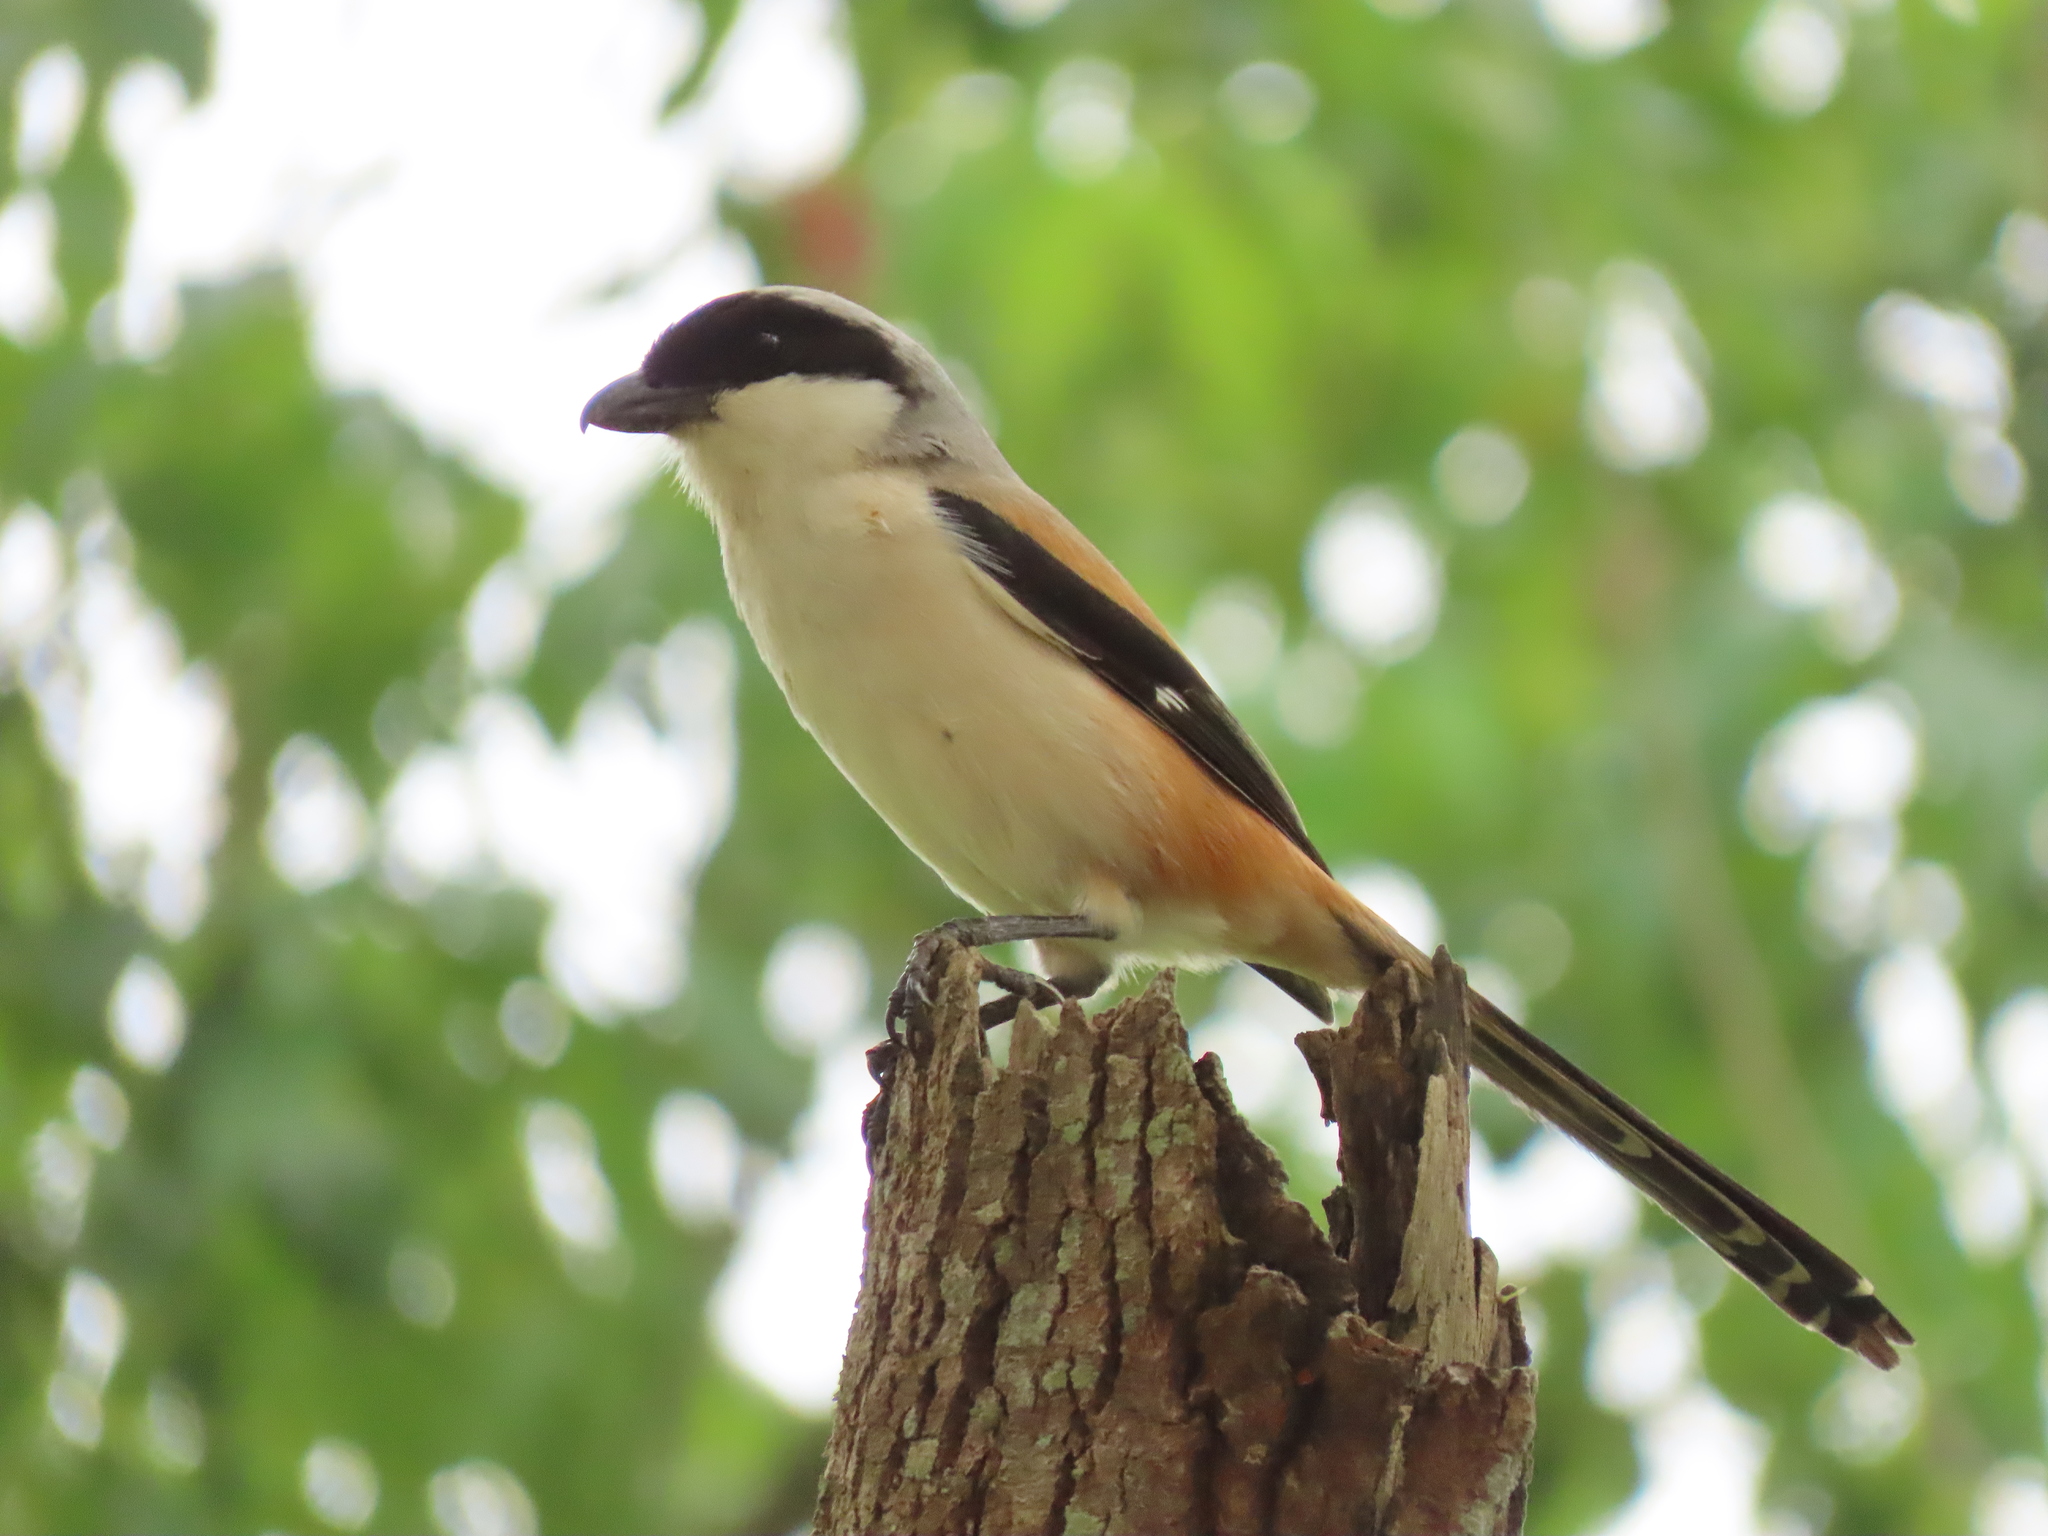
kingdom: Animalia
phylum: Chordata
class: Aves
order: Passeriformes
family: Laniidae
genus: Lanius
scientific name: Lanius schach
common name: Long-tailed shrike
